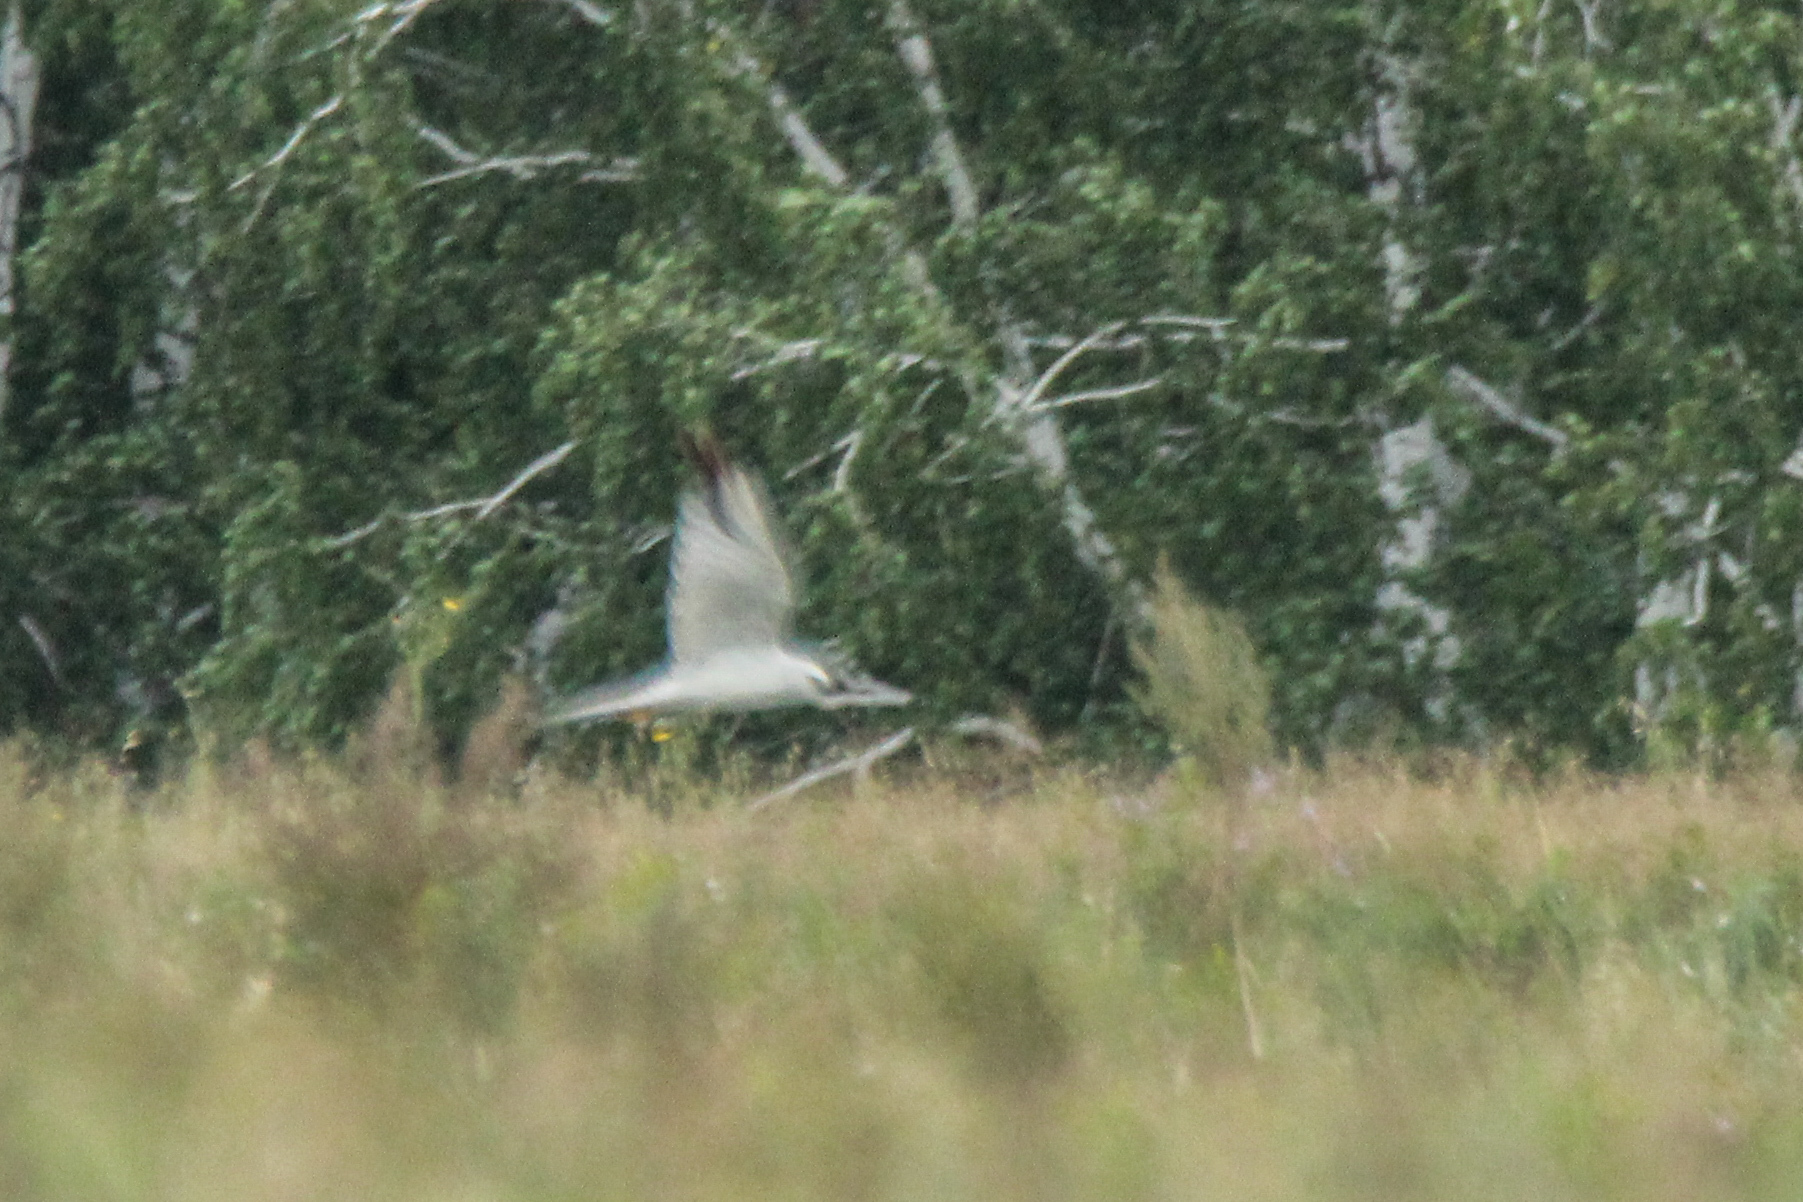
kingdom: Animalia
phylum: Chordata
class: Aves
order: Accipitriformes
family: Accipitridae
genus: Circus
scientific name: Circus macrourus
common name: Pallid harrier
